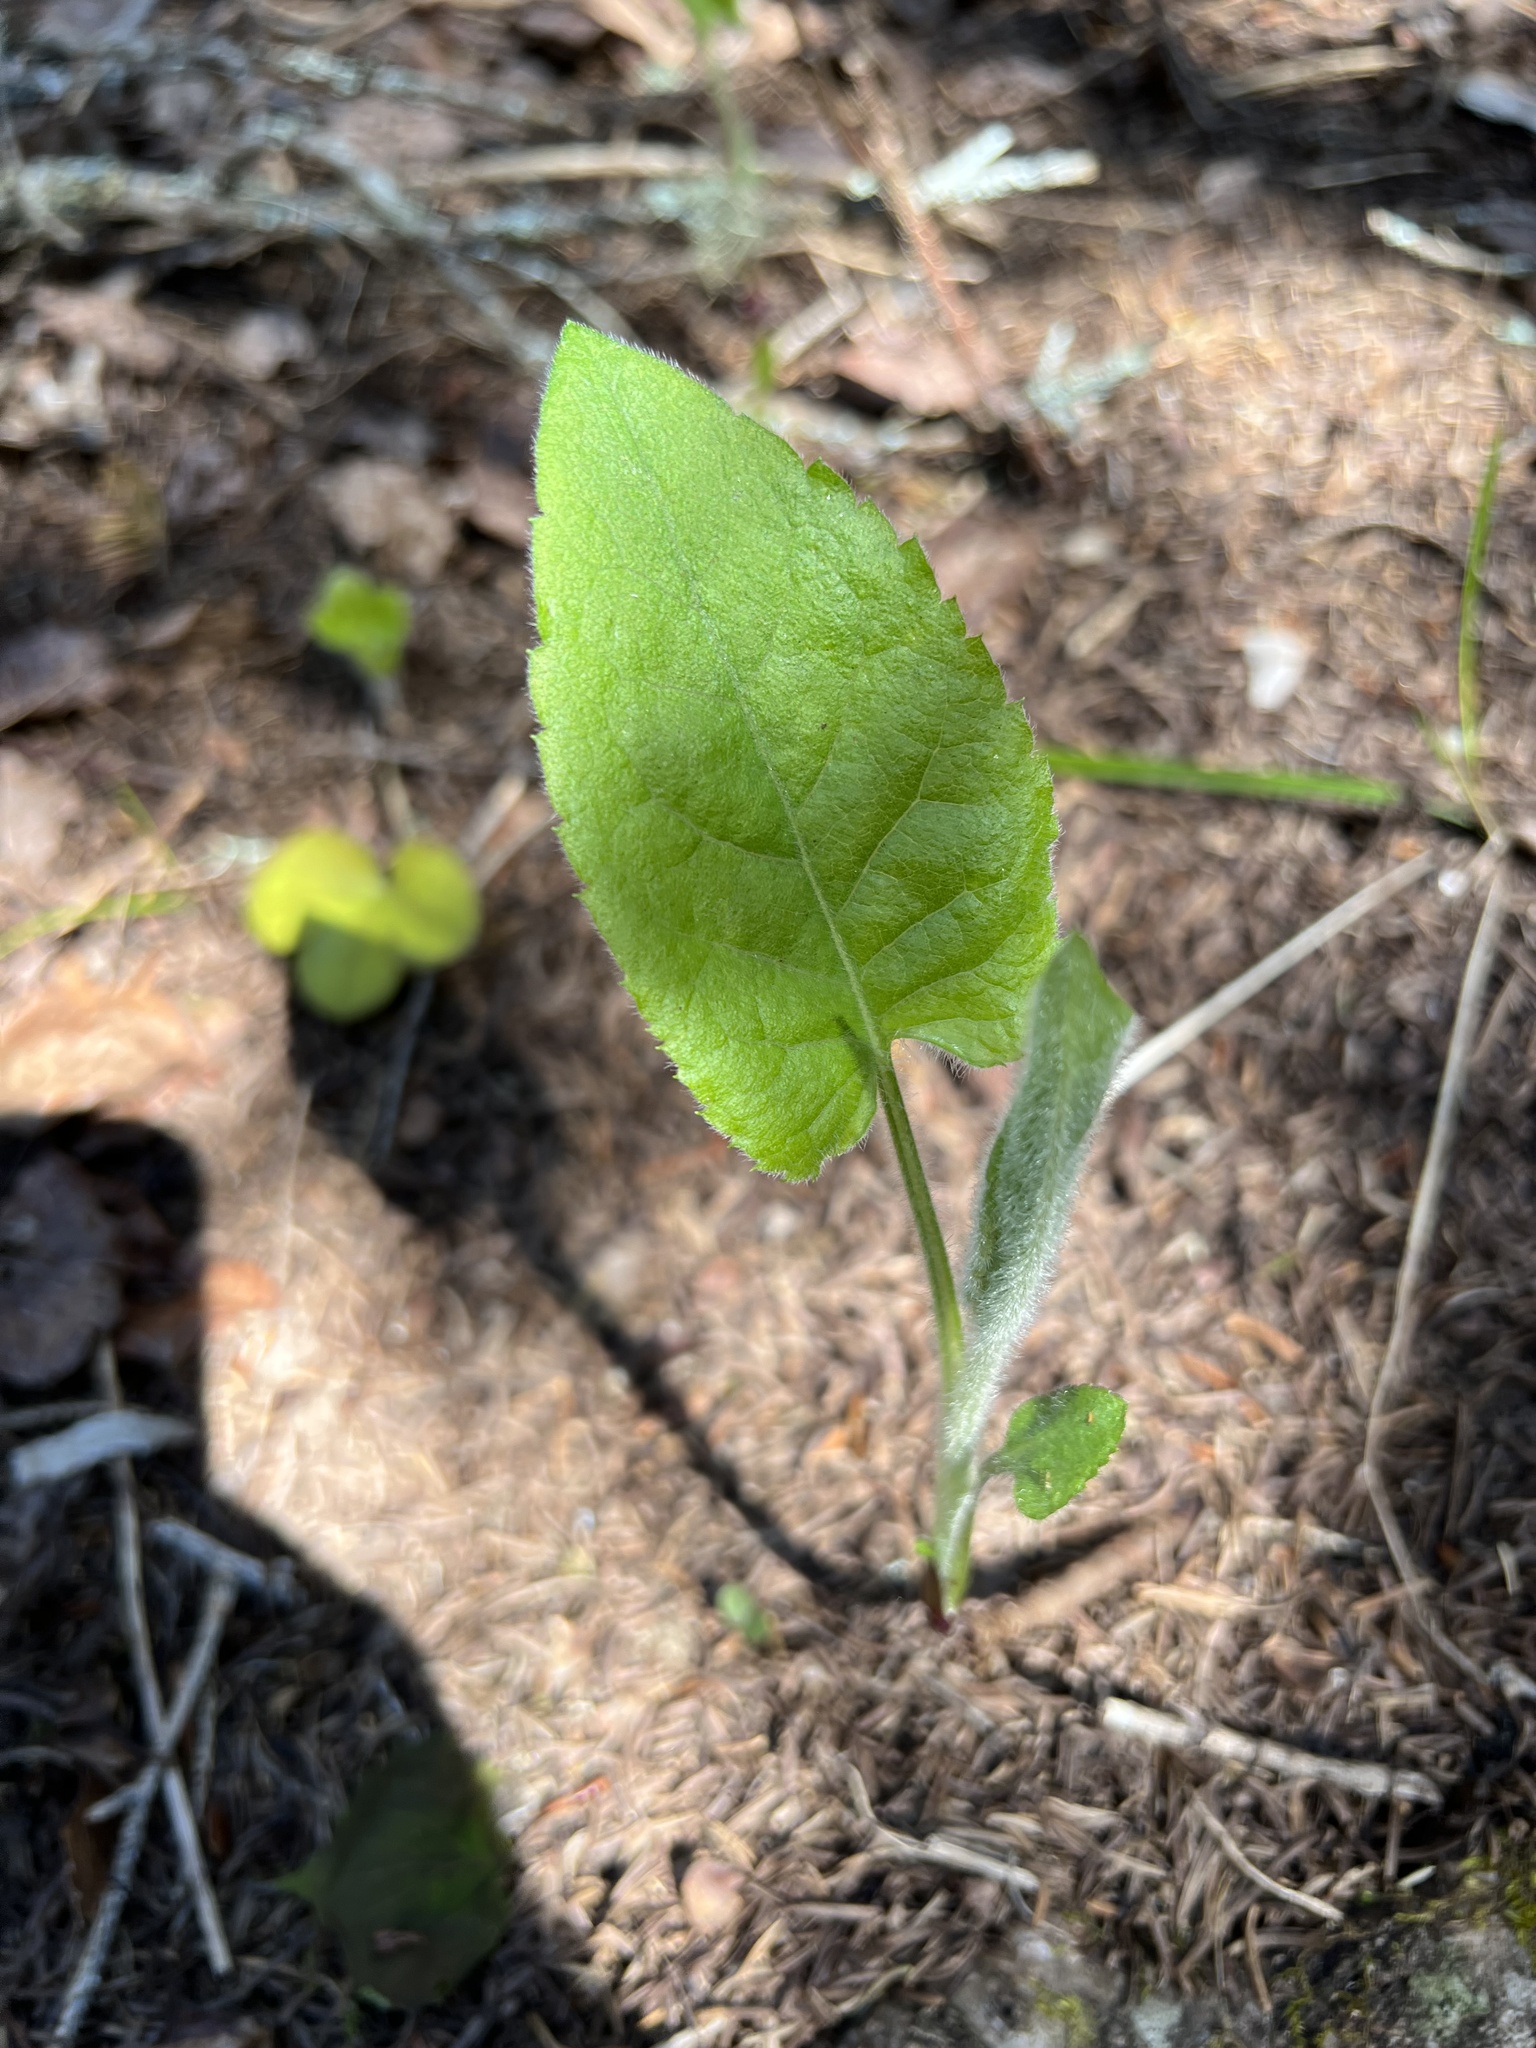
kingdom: Plantae
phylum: Tracheophyta
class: Magnoliopsida
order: Asterales
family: Asteraceae
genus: Eurybia
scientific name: Eurybia macrophylla
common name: Big-leaved aster
